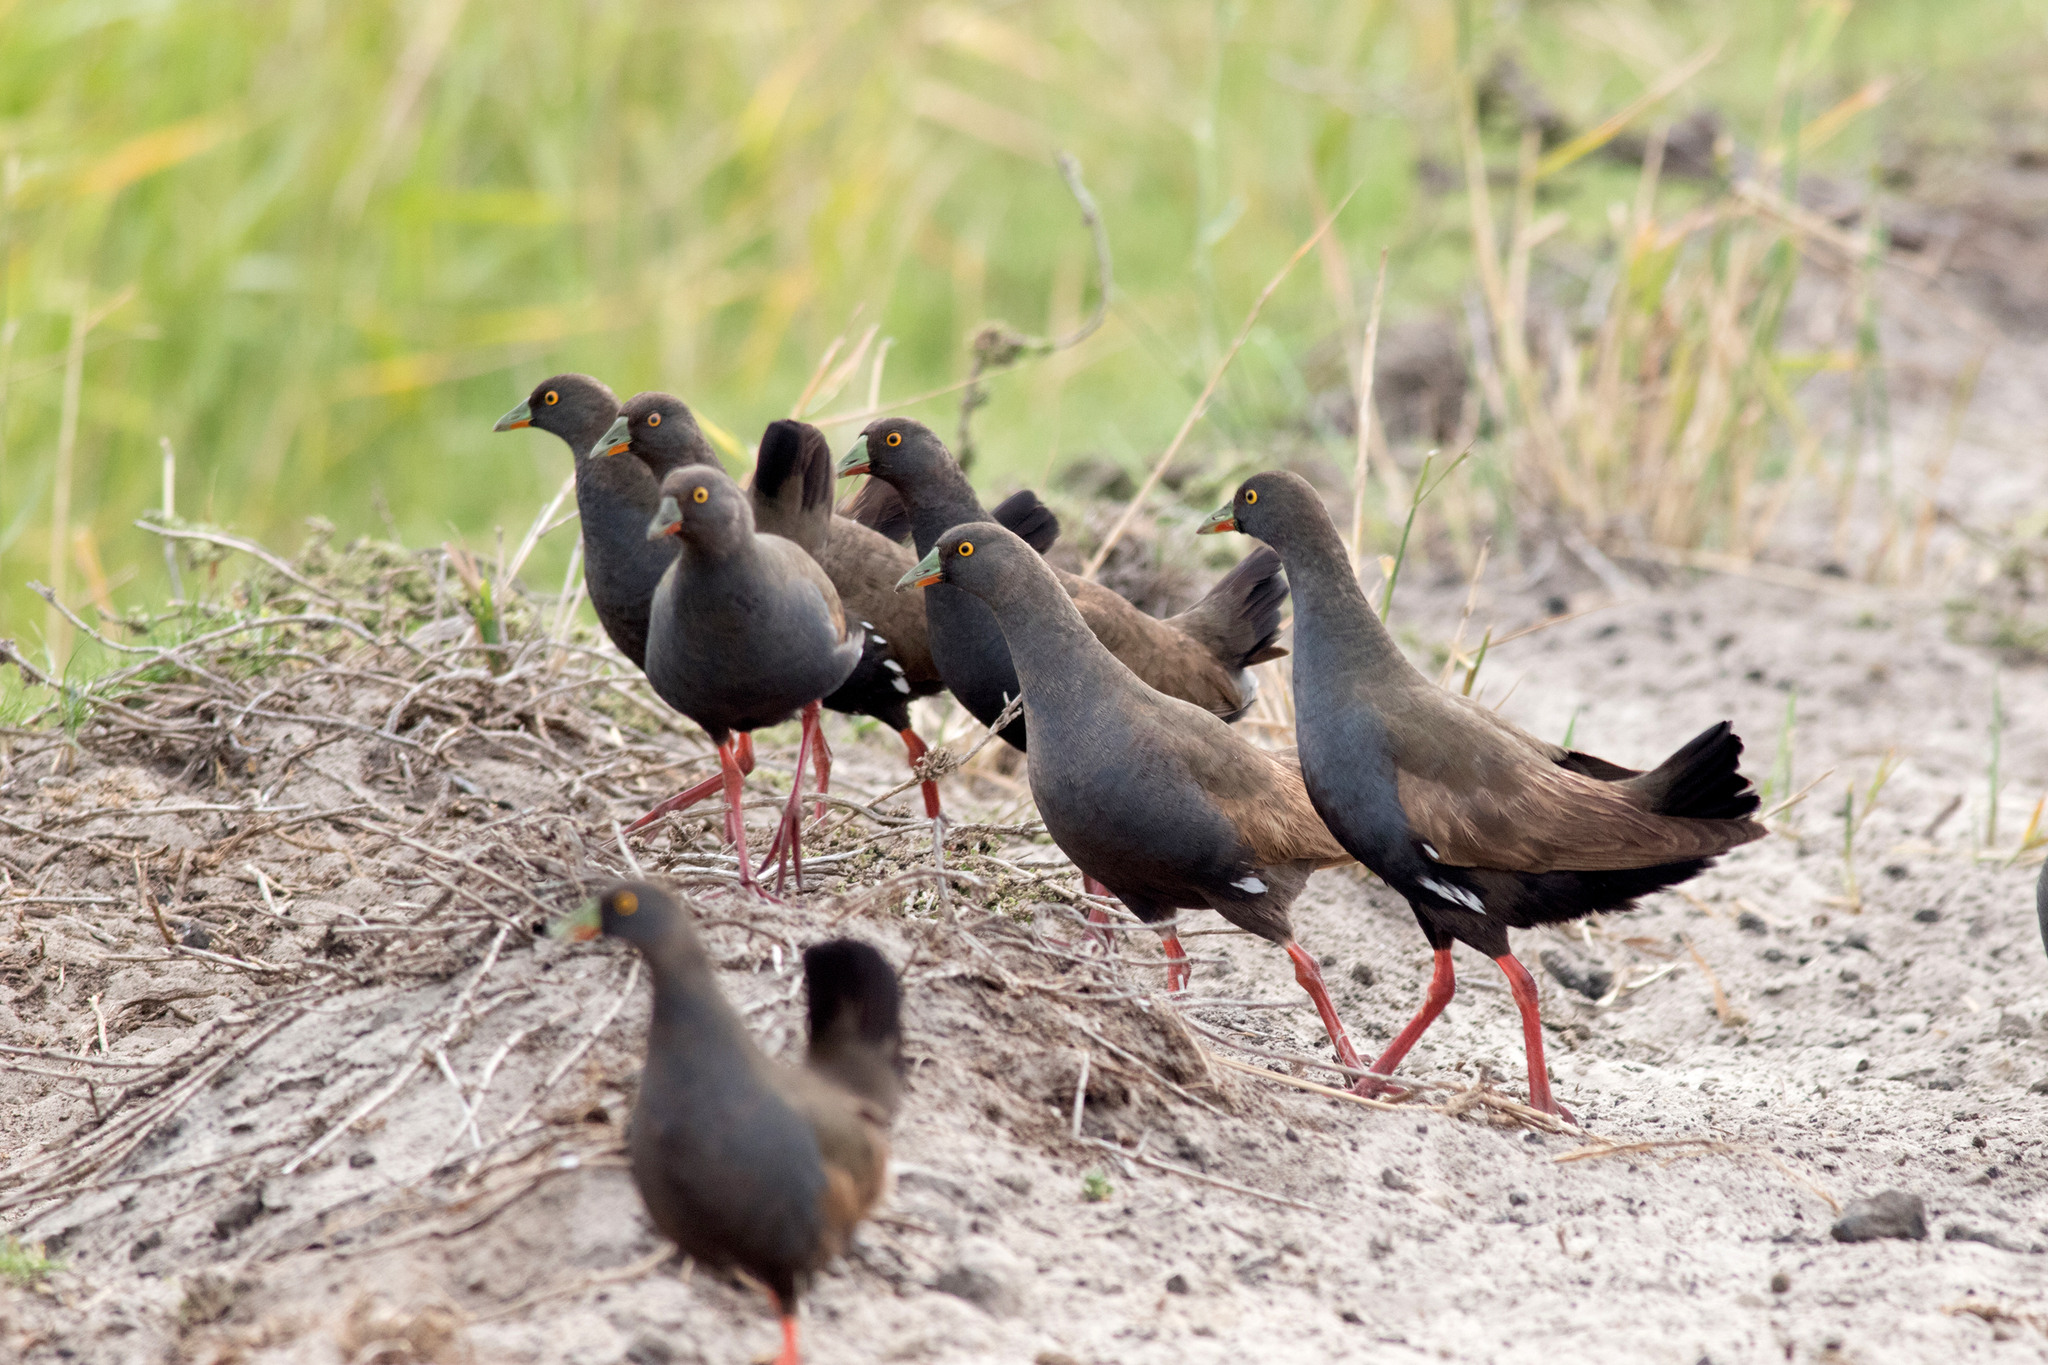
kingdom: Animalia
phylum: Chordata
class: Aves
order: Gruiformes
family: Rallidae
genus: Gallinula
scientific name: Gallinula ventralis
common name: Black-tailed nativehen
